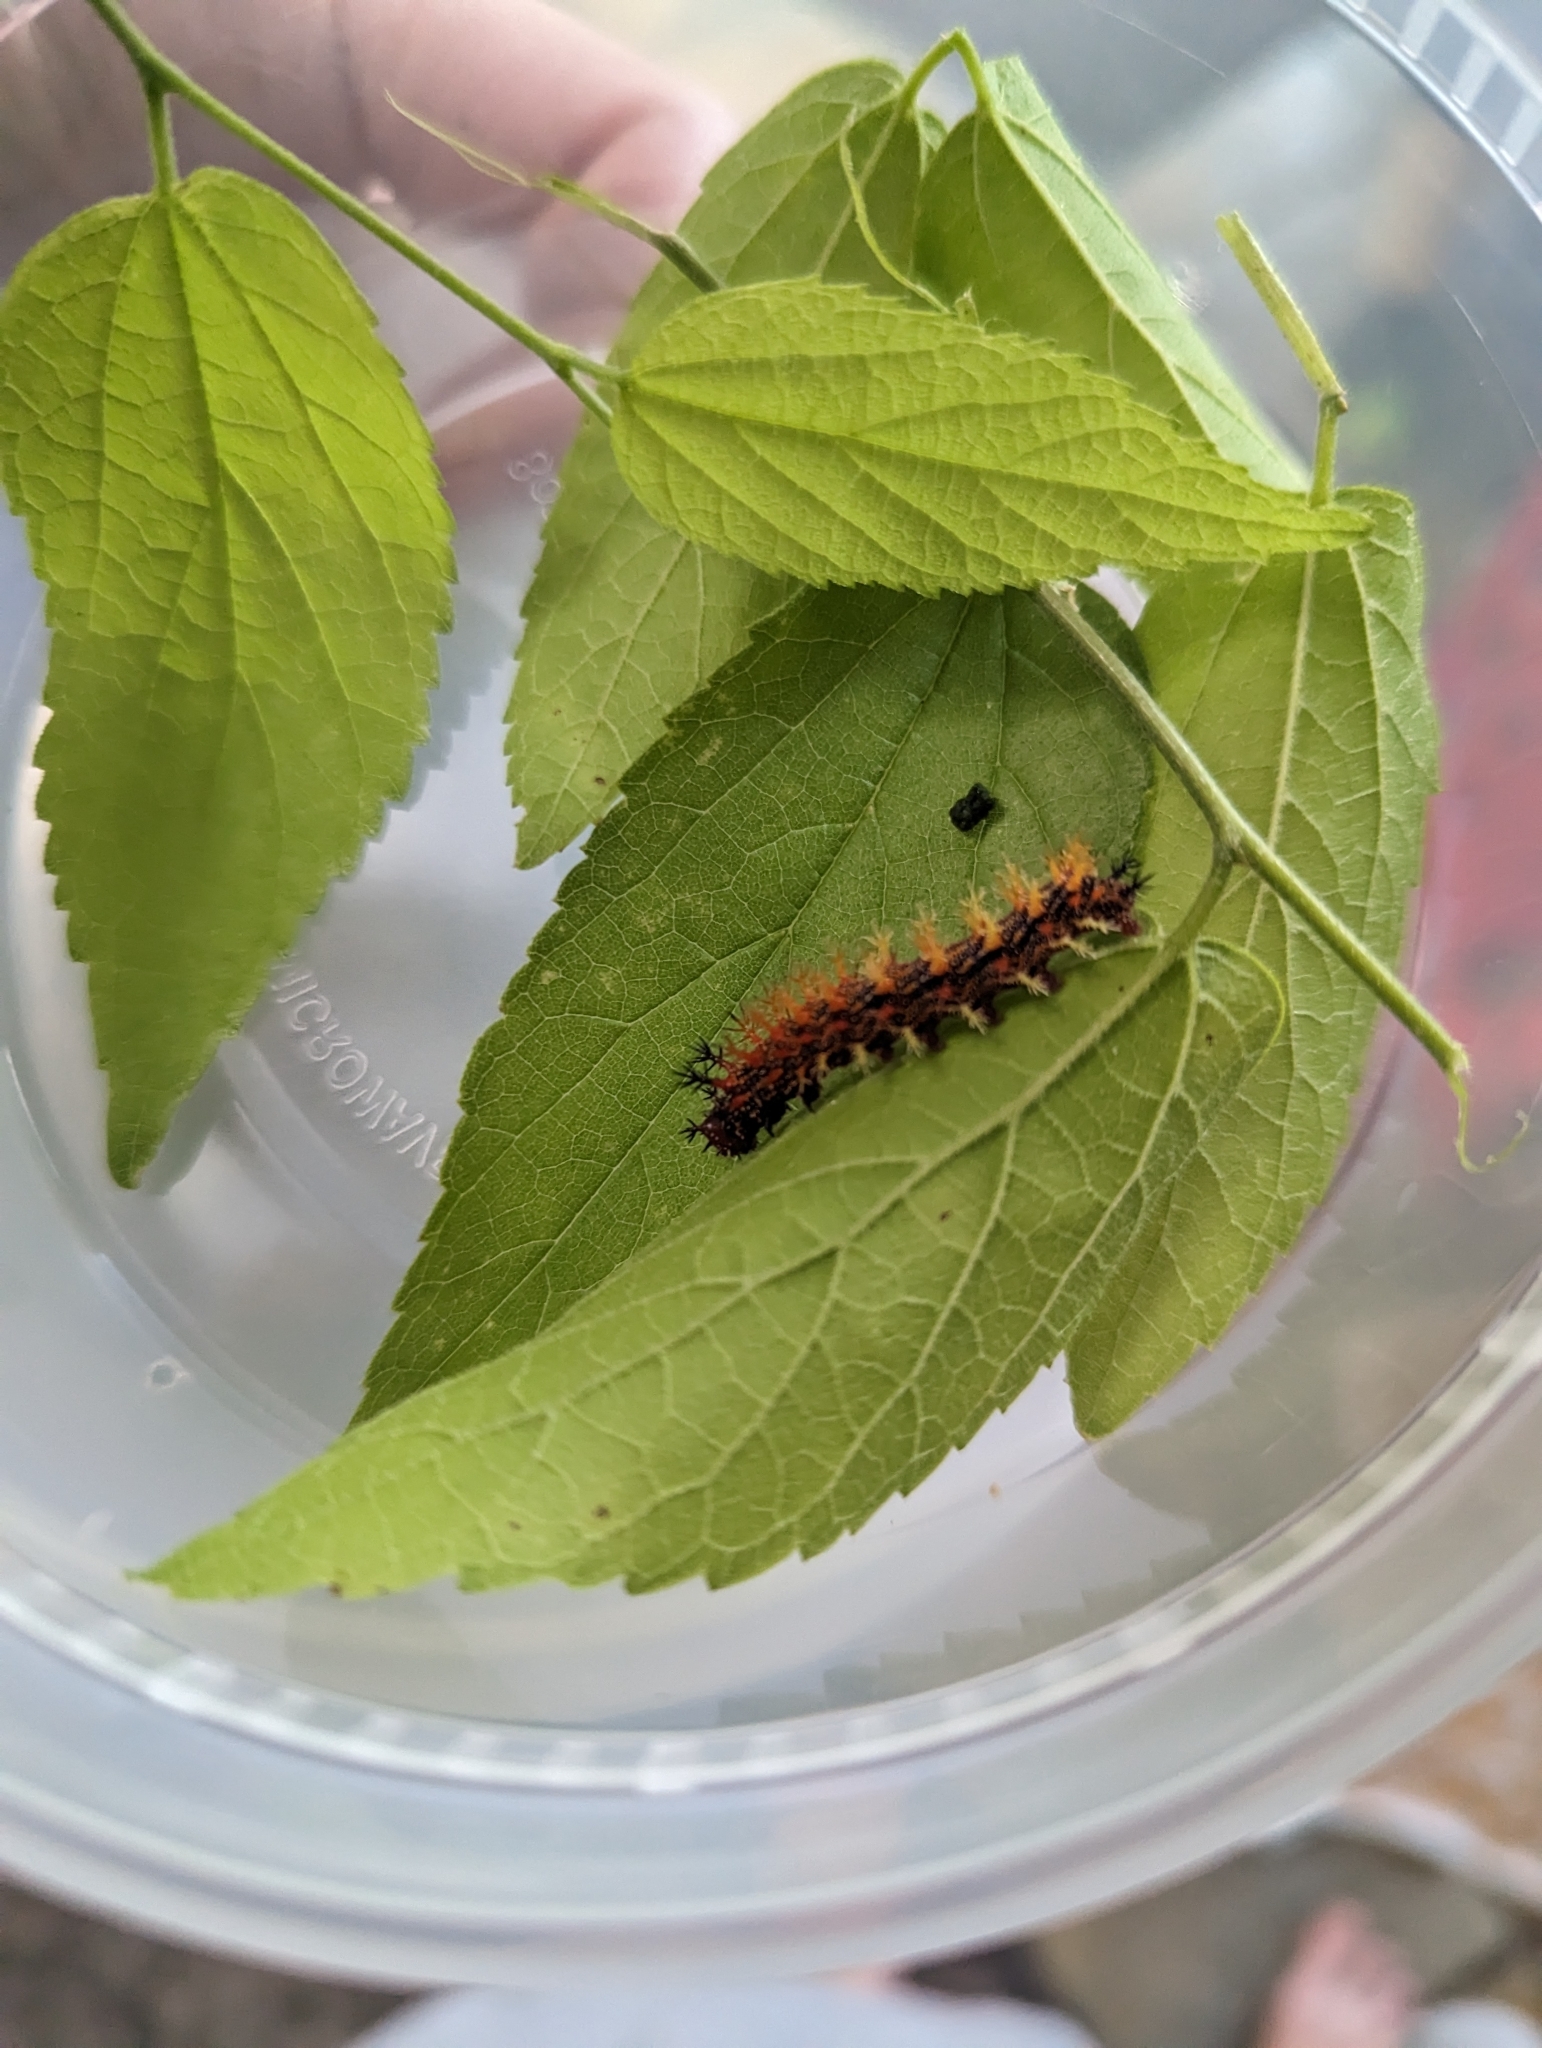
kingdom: Animalia
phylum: Arthropoda
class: Insecta
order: Lepidoptera
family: Nymphalidae
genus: Polygonia
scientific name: Polygonia interrogationis
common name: Question mark
